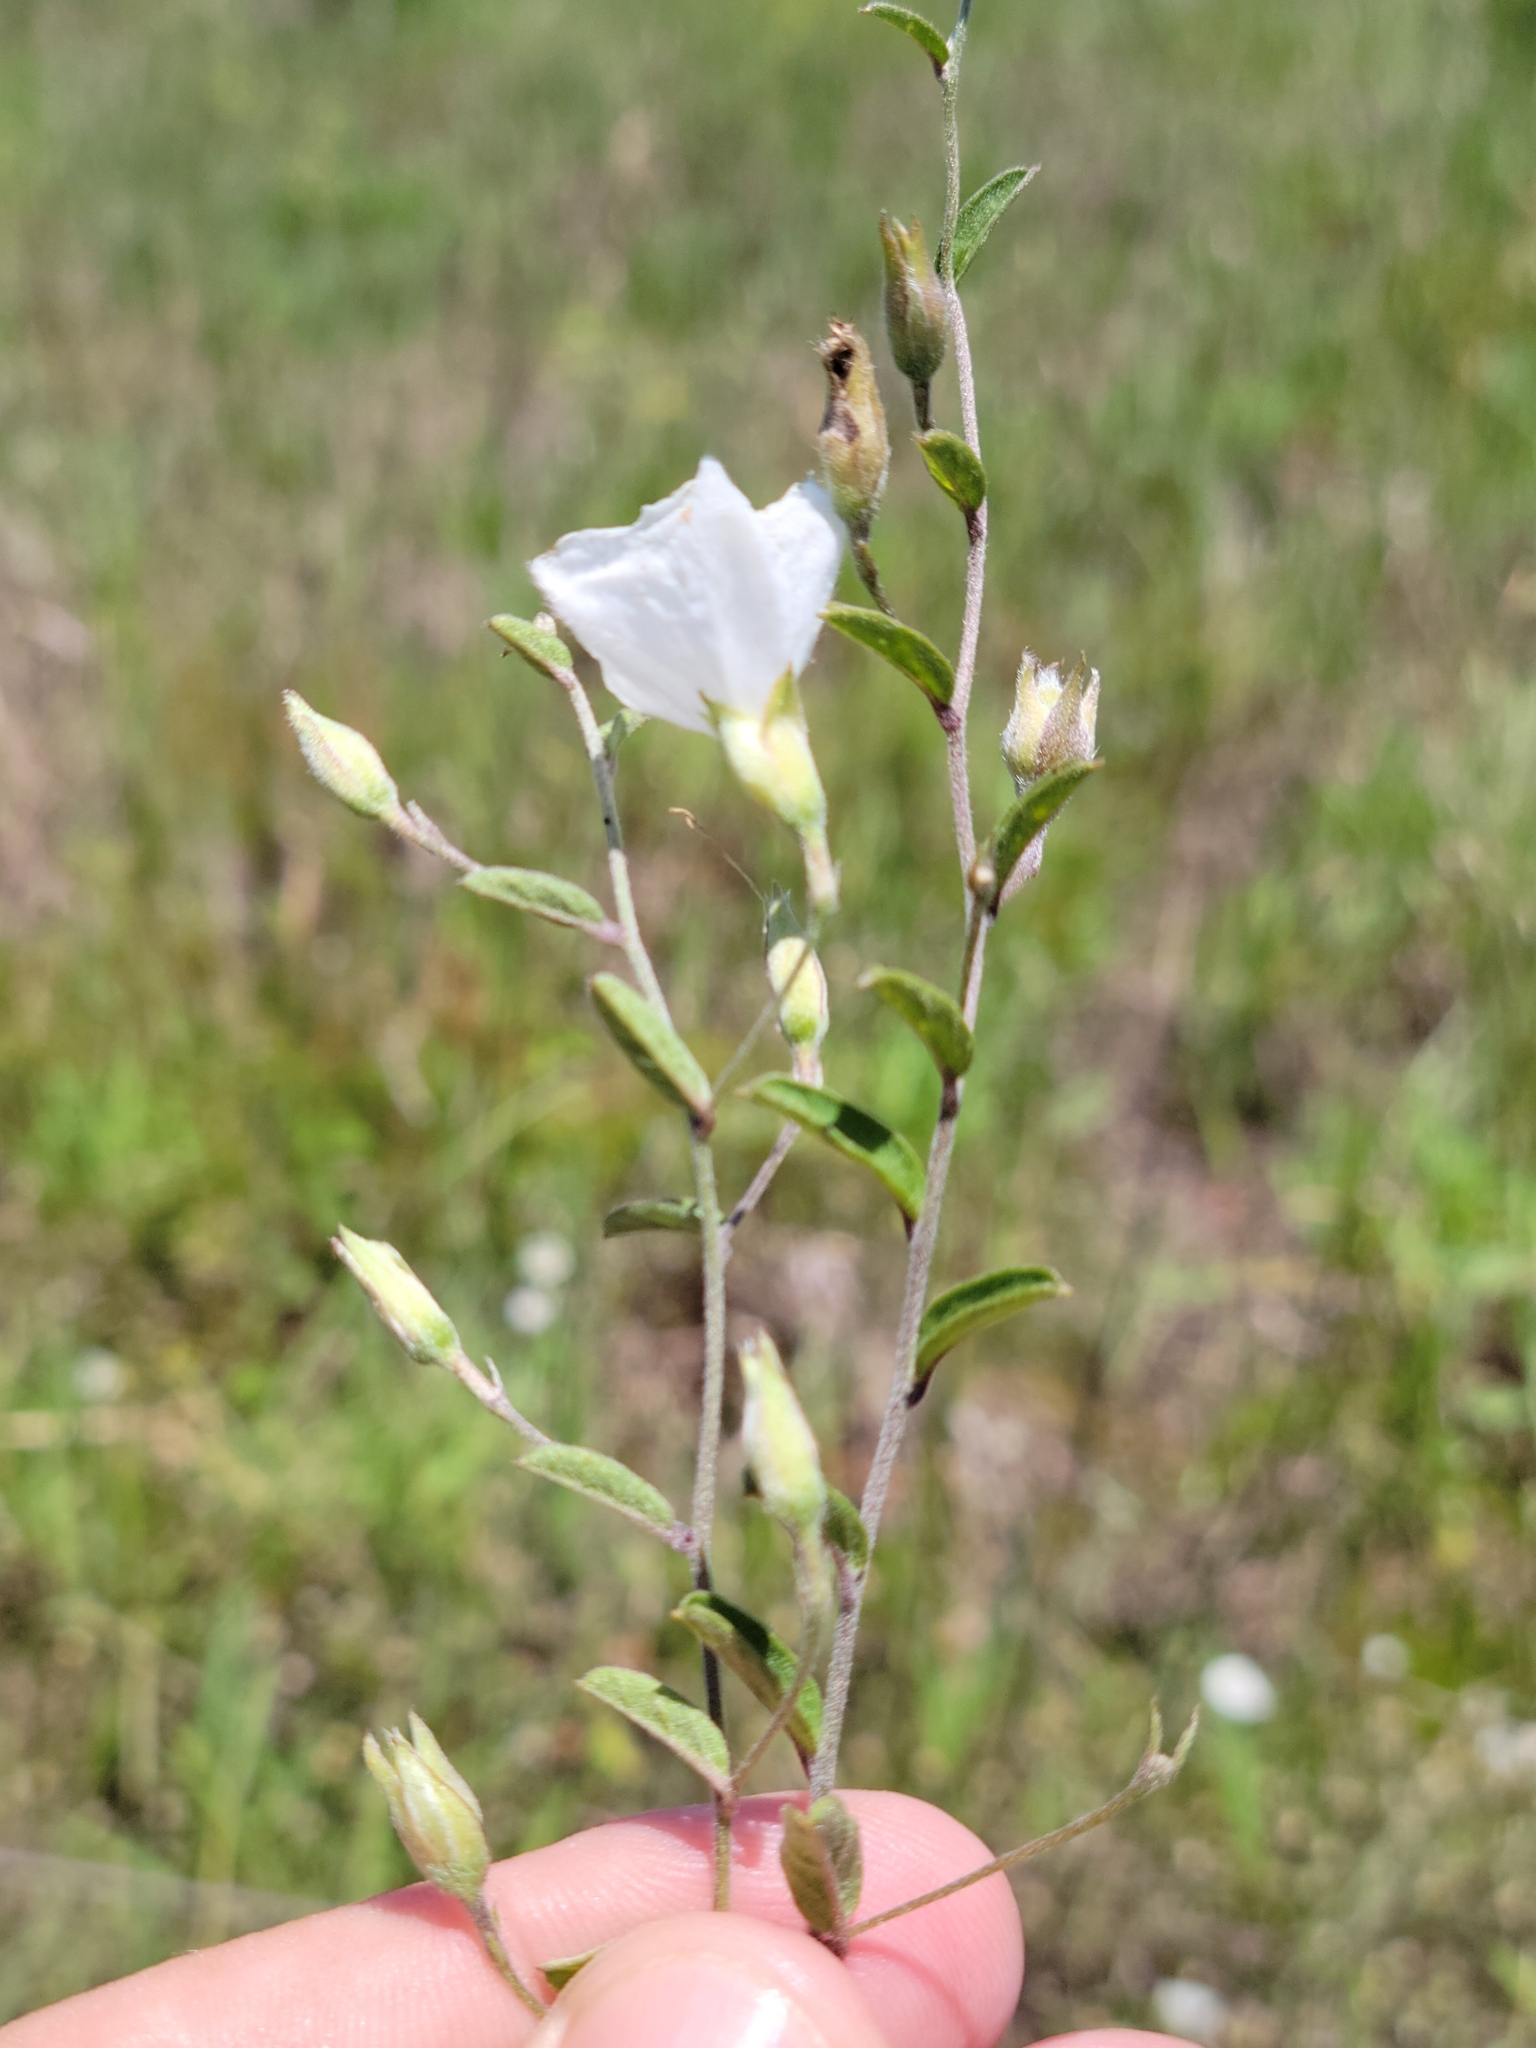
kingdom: Plantae
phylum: Tracheophyta
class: Magnoliopsida
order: Solanales
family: Convolvulaceae
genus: Stylisma
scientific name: Stylisma villosa
